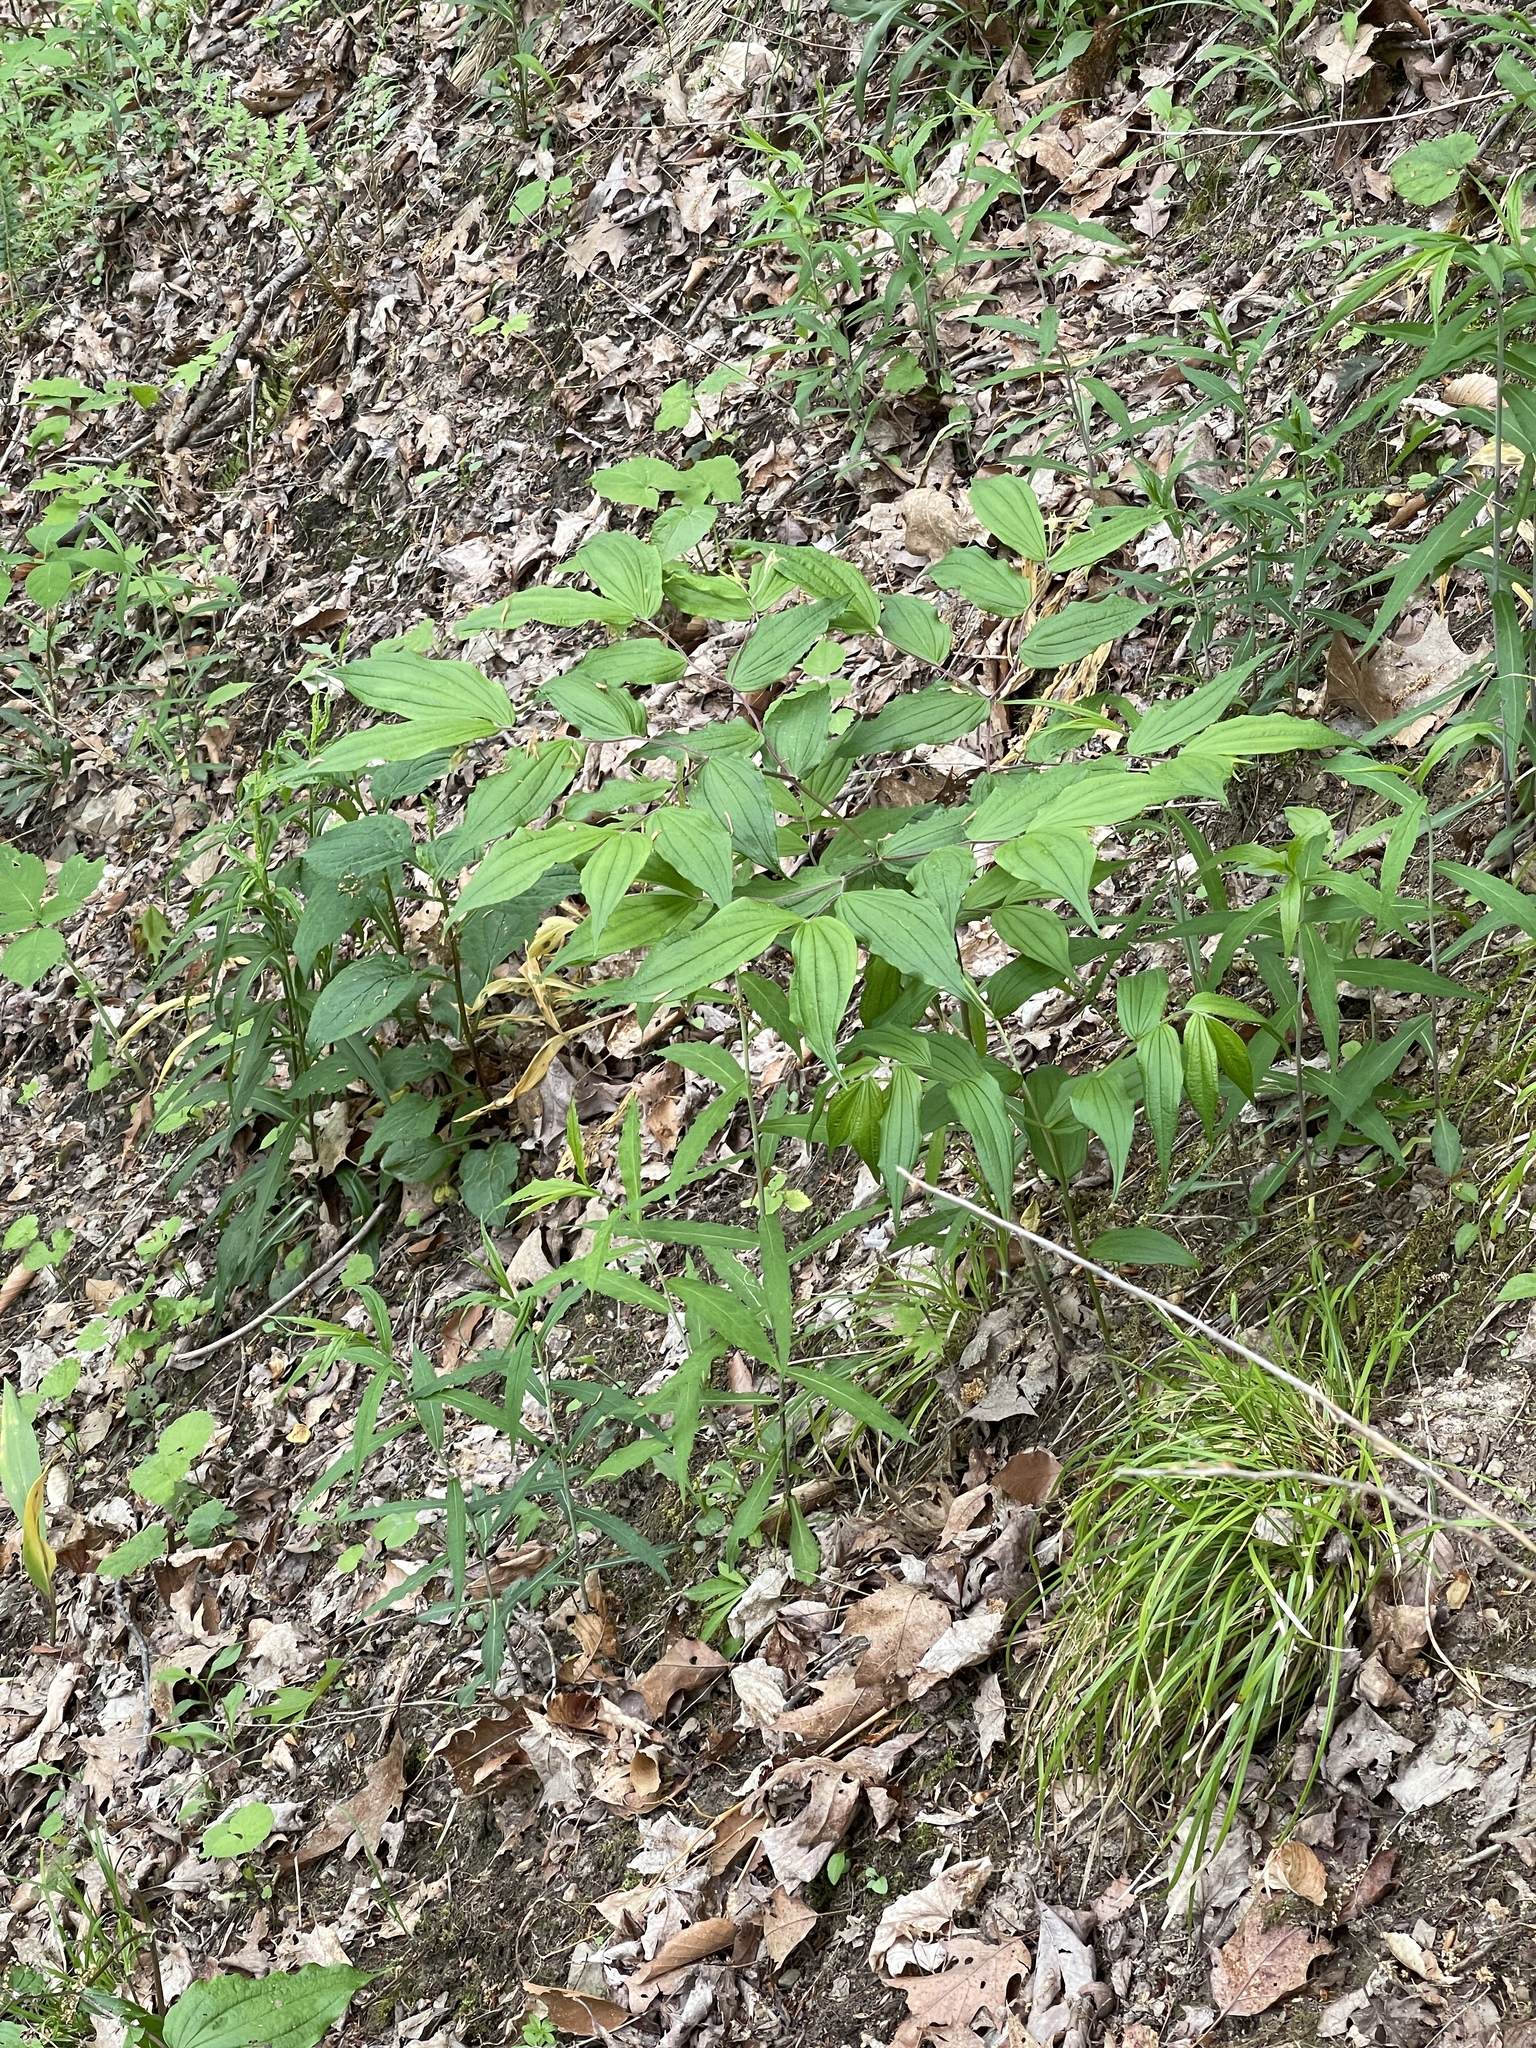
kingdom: Plantae
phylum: Tracheophyta
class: Liliopsida
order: Liliales
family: Liliaceae
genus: Prosartes
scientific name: Prosartes lanuginosa
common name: Hairy mandarin
